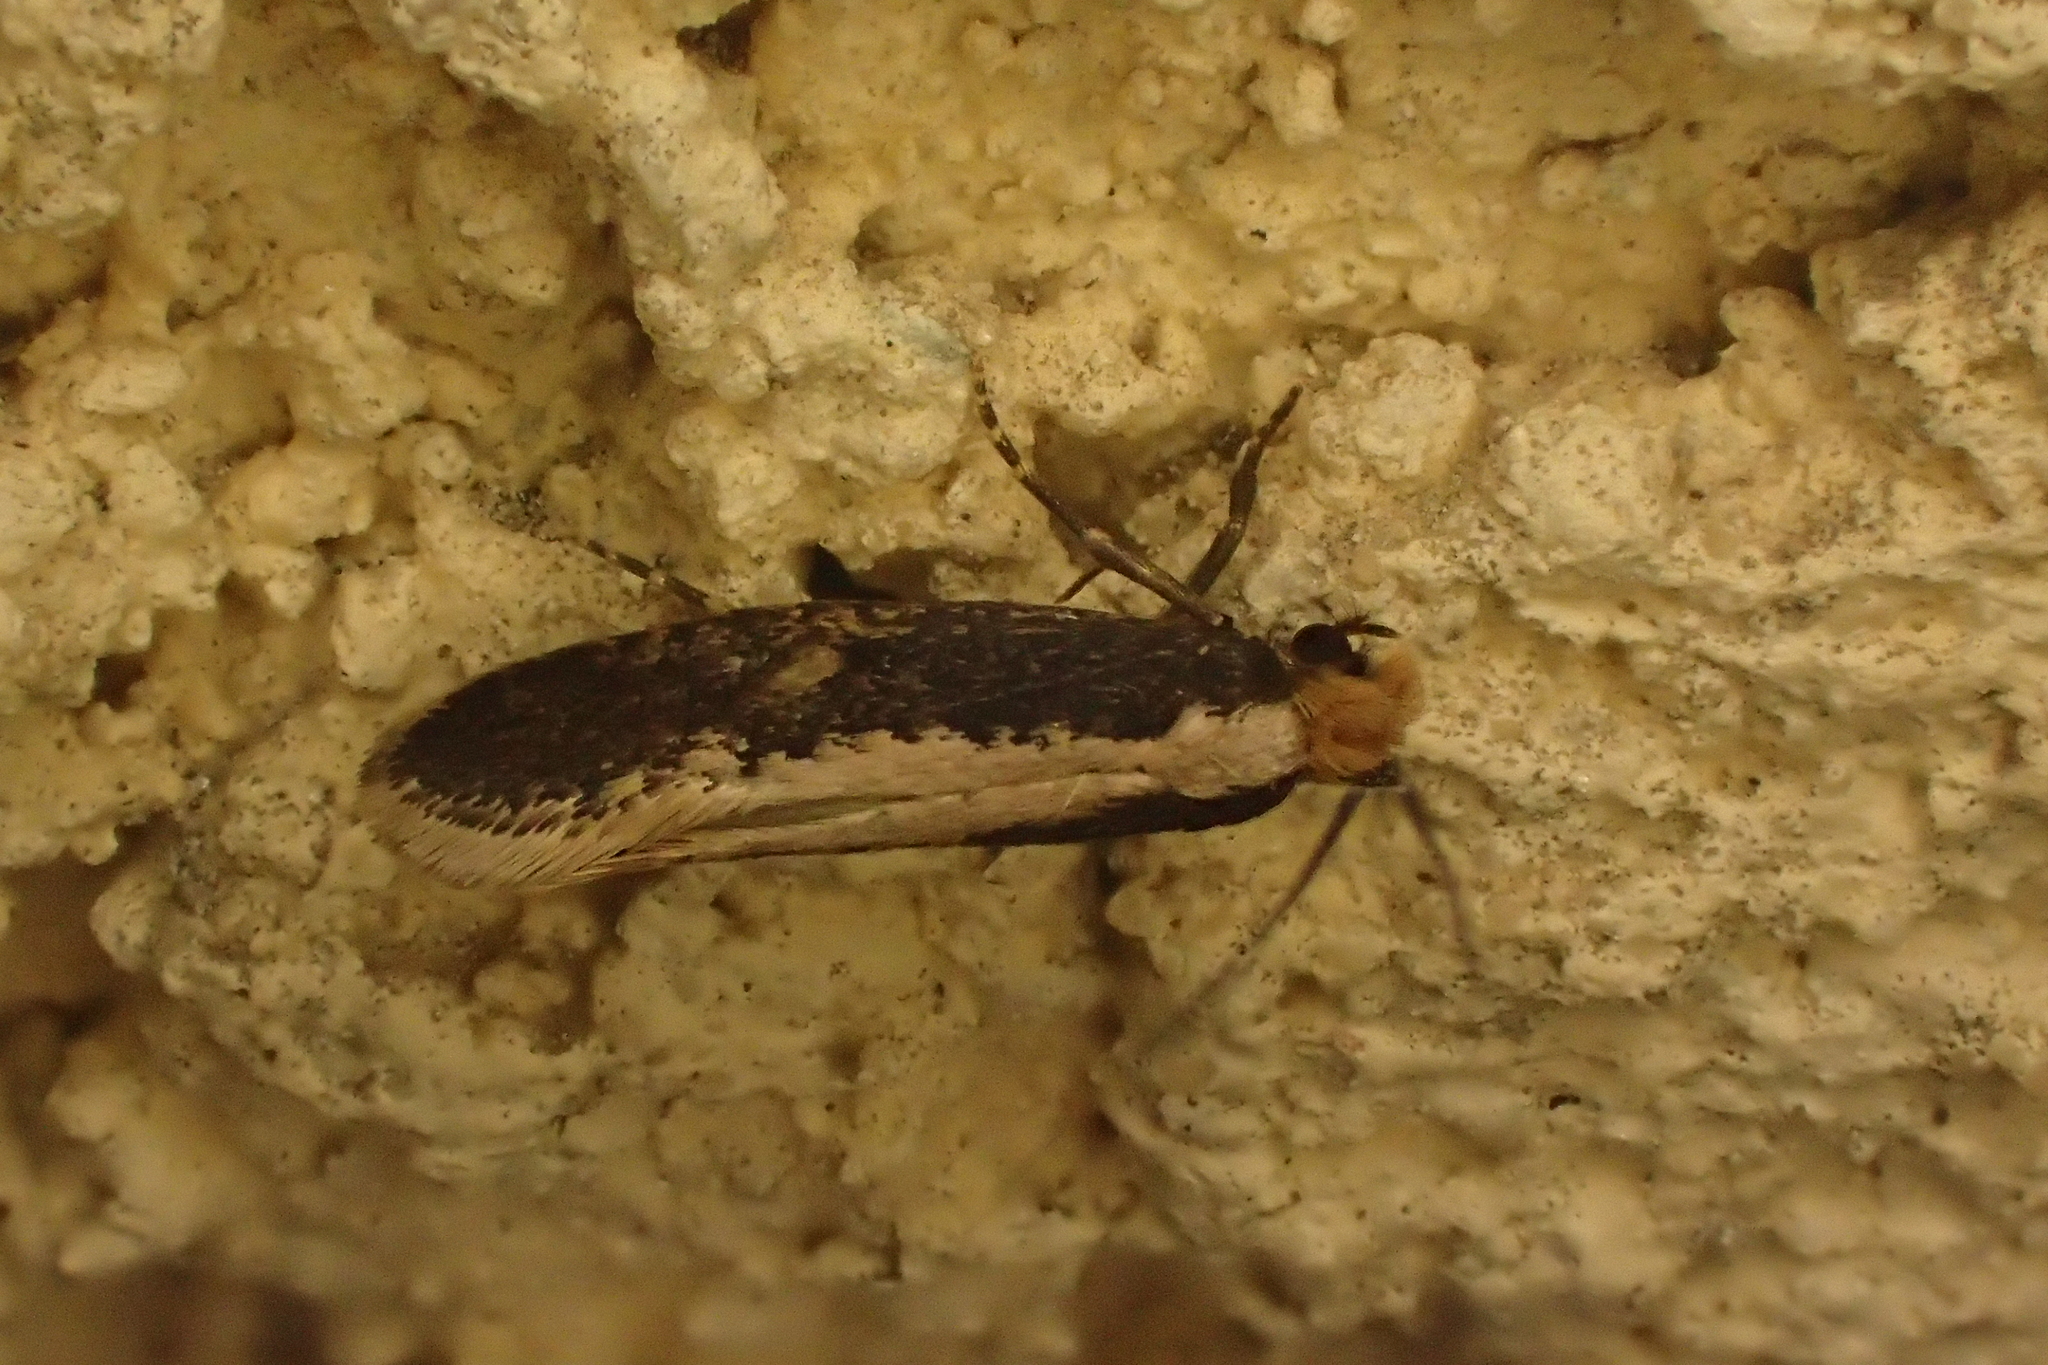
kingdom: Animalia
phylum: Arthropoda
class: Insecta
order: Lepidoptera
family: Tineidae
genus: Monopis
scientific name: Monopis crocicapitella
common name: Moth
